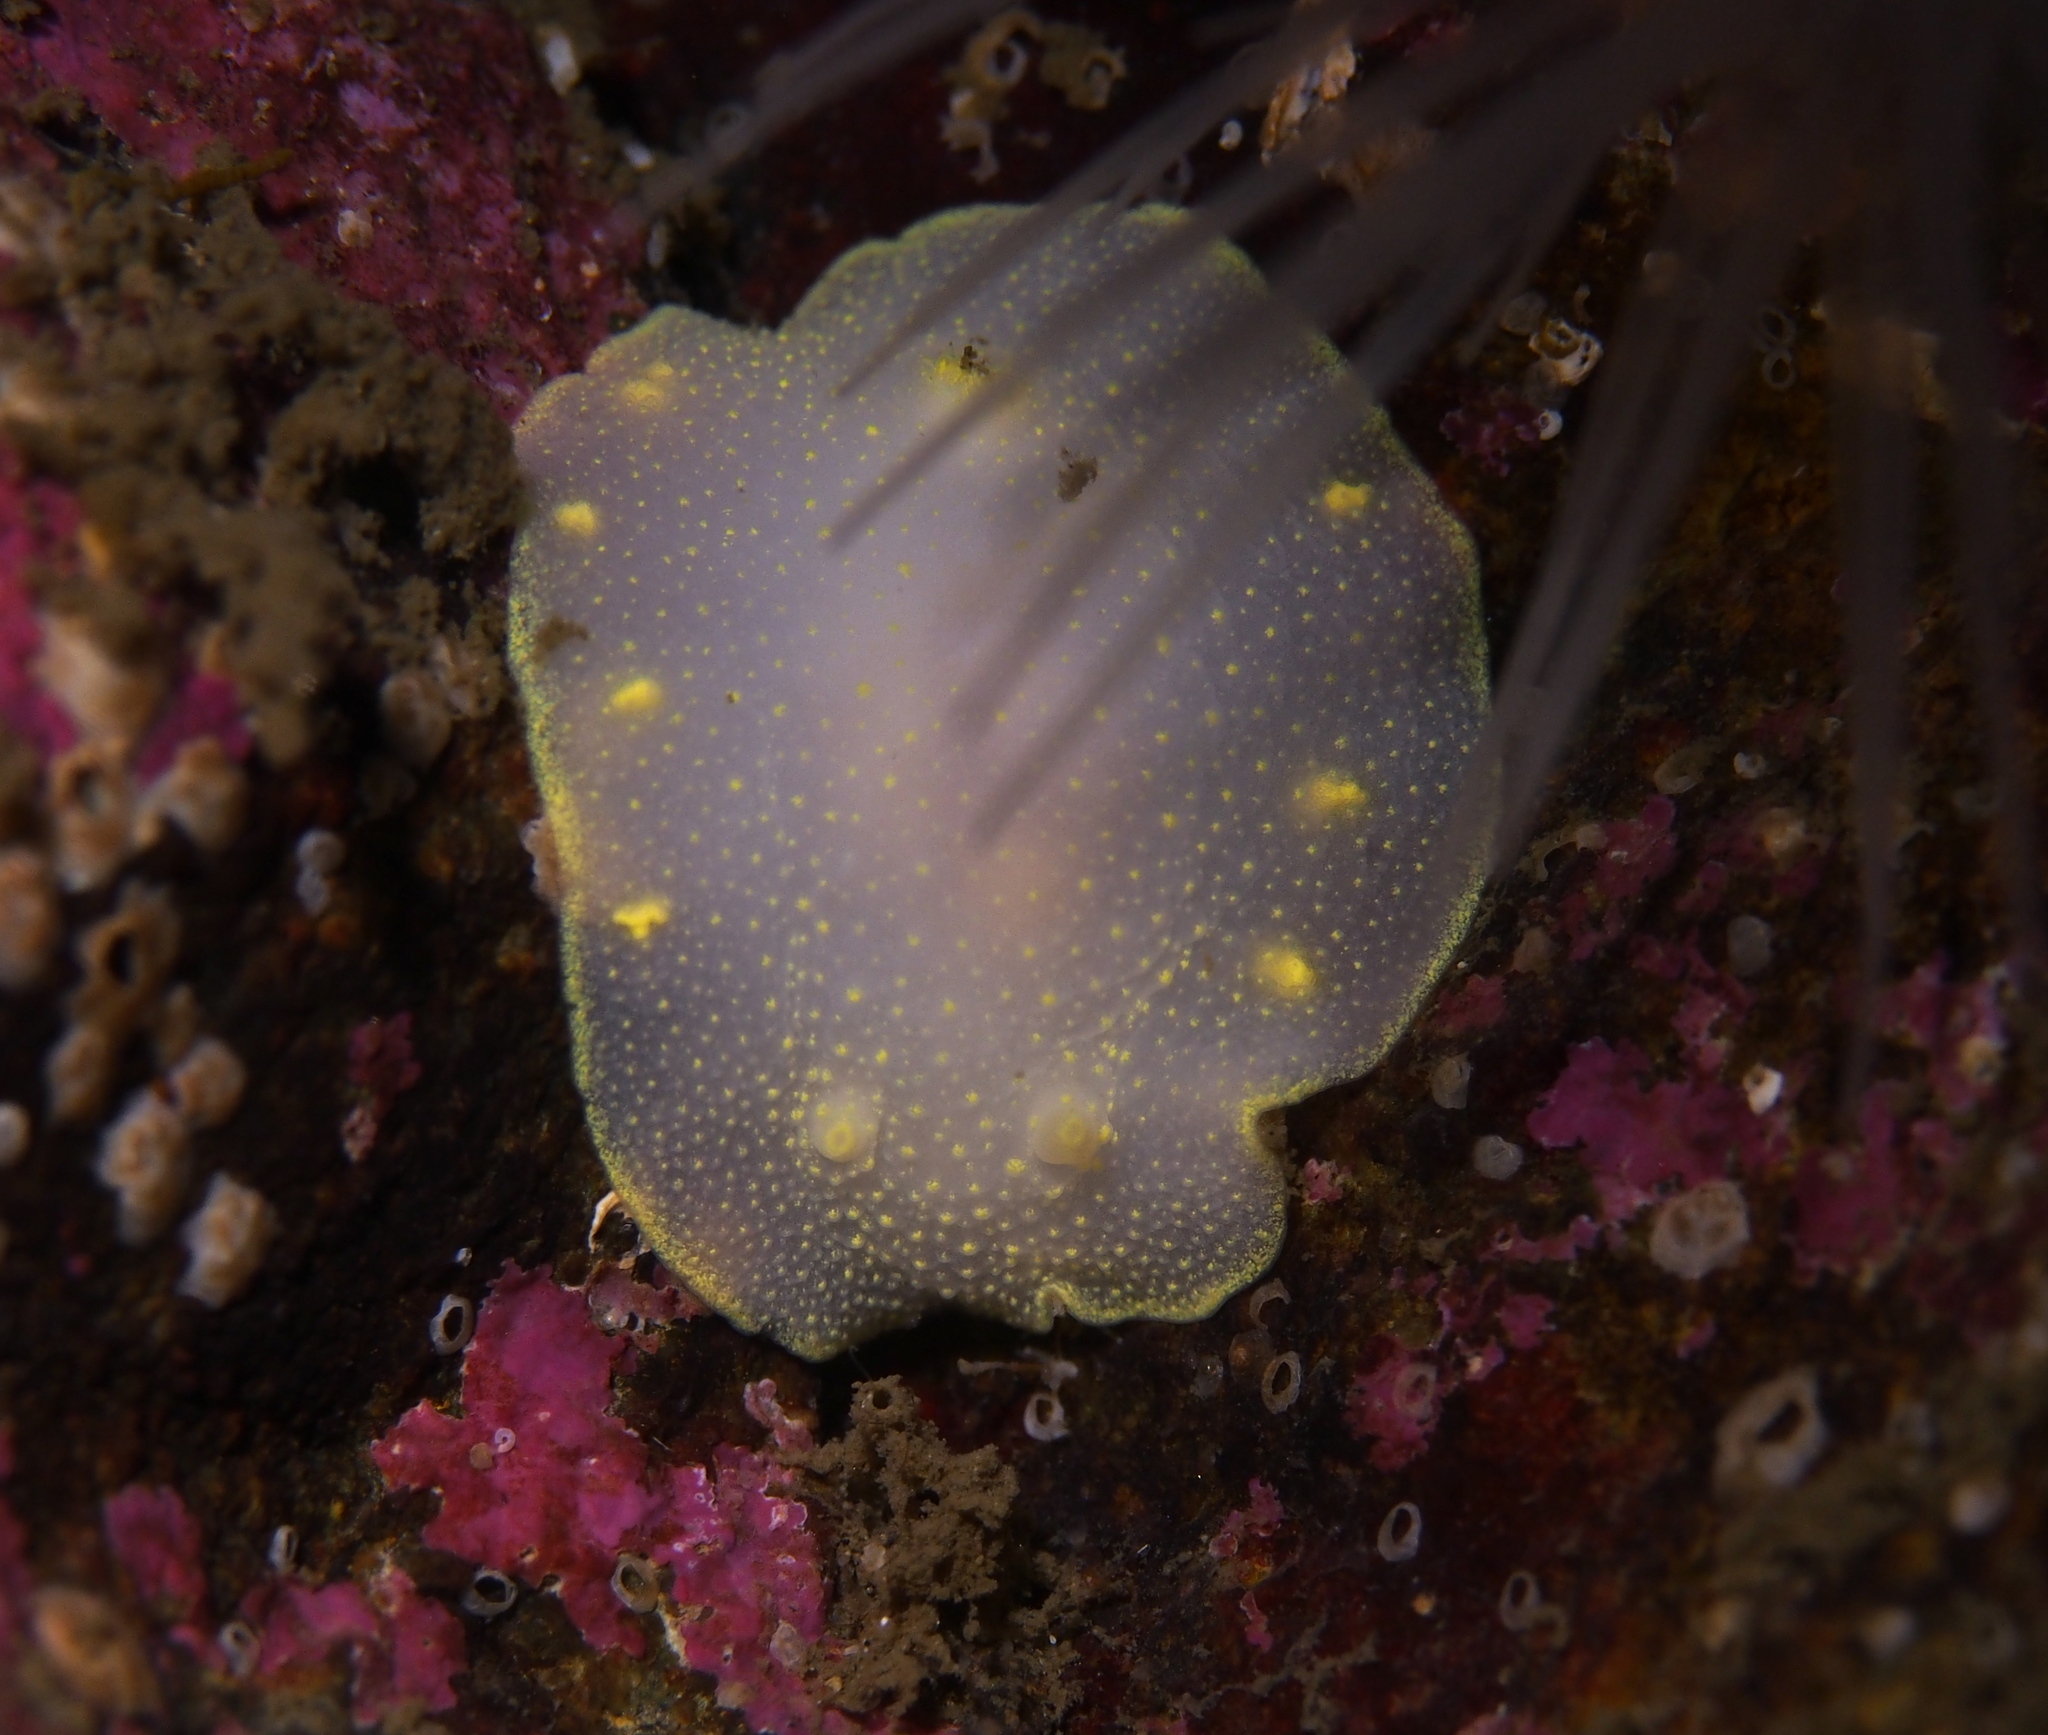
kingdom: Animalia
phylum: Mollusca
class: Gastropoda
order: Nudibranchia
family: Cadlinidae
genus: Cadlina
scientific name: Cadlina laevis
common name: White atlantic cadlina
